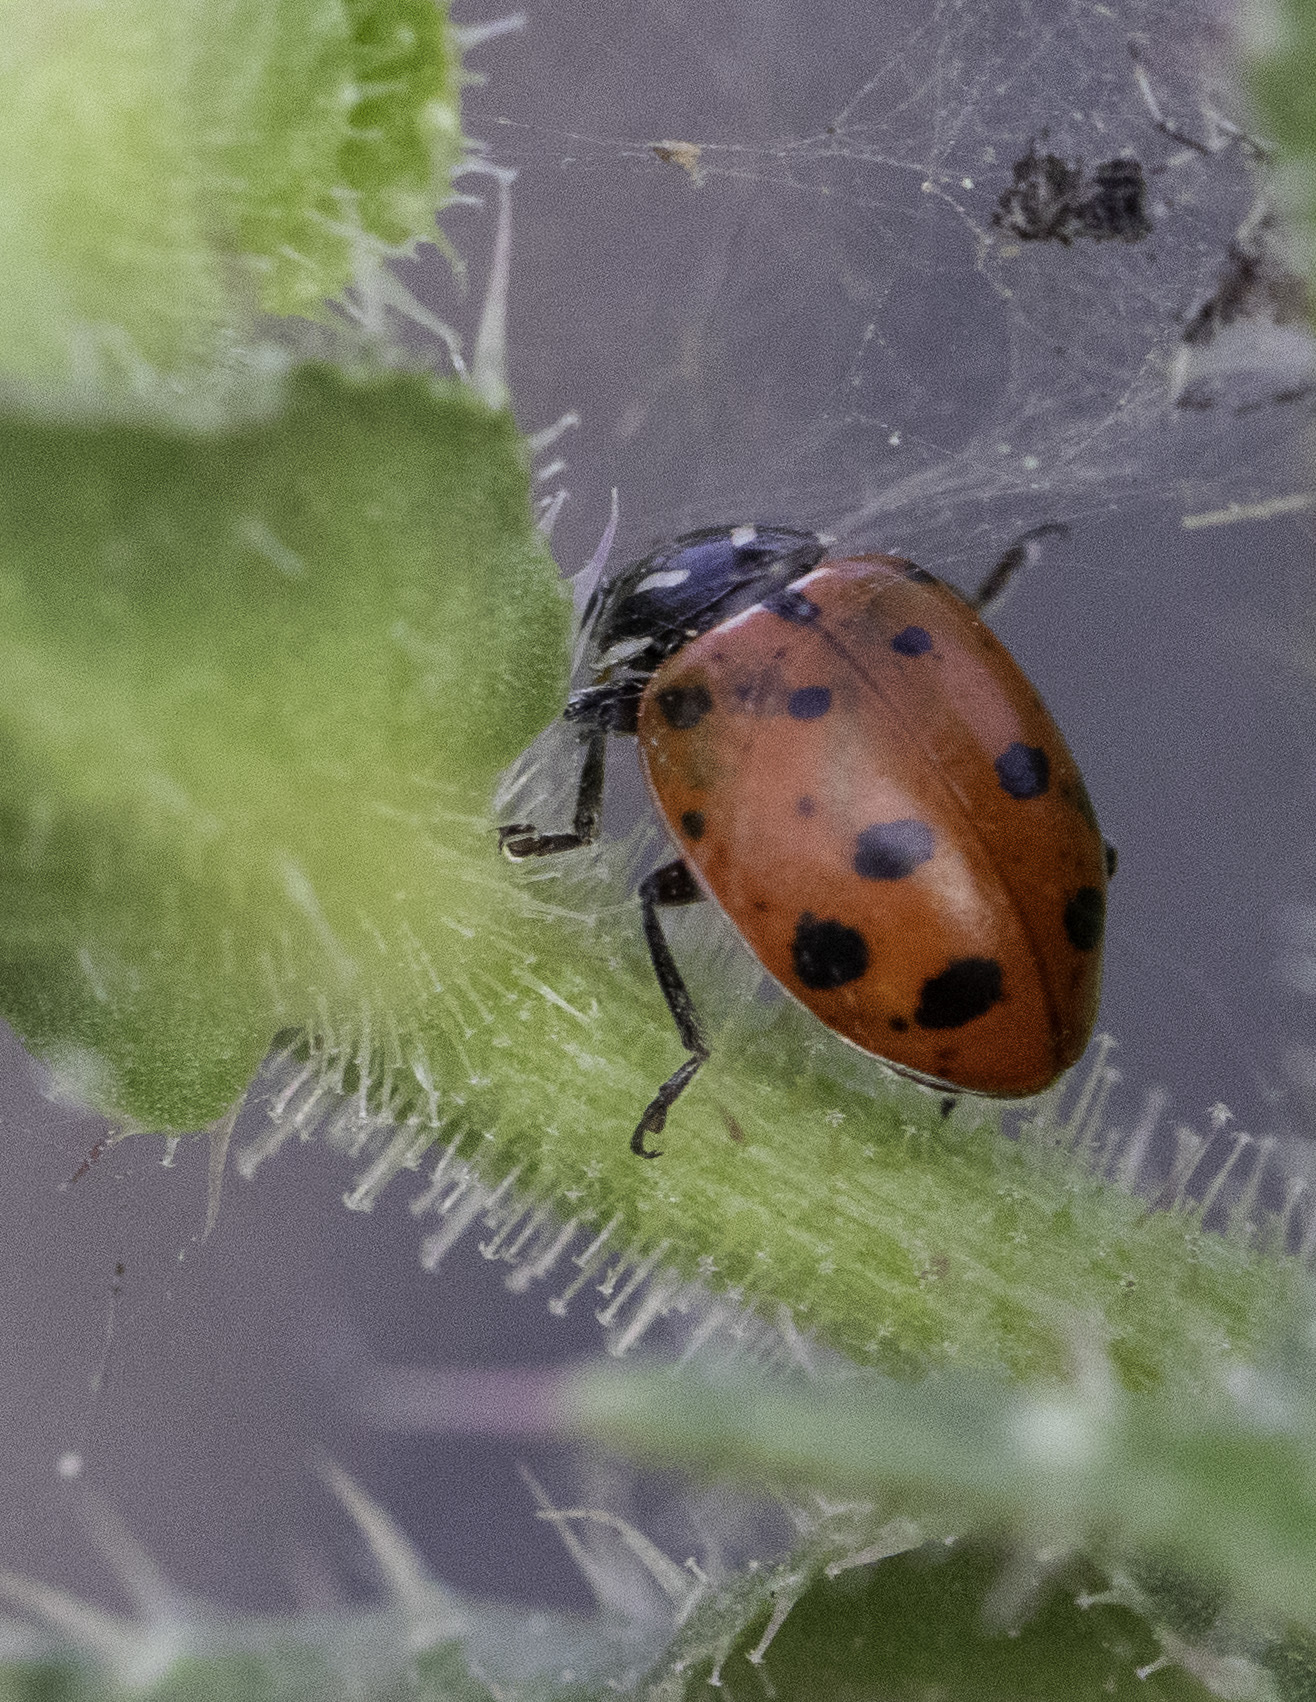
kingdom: Animalia
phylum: Arthropoda
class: Insecta
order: Coleoptera
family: Coccinellidae
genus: Hippodamia
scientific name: Hippodamia convergens
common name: Convergent lady beetle
